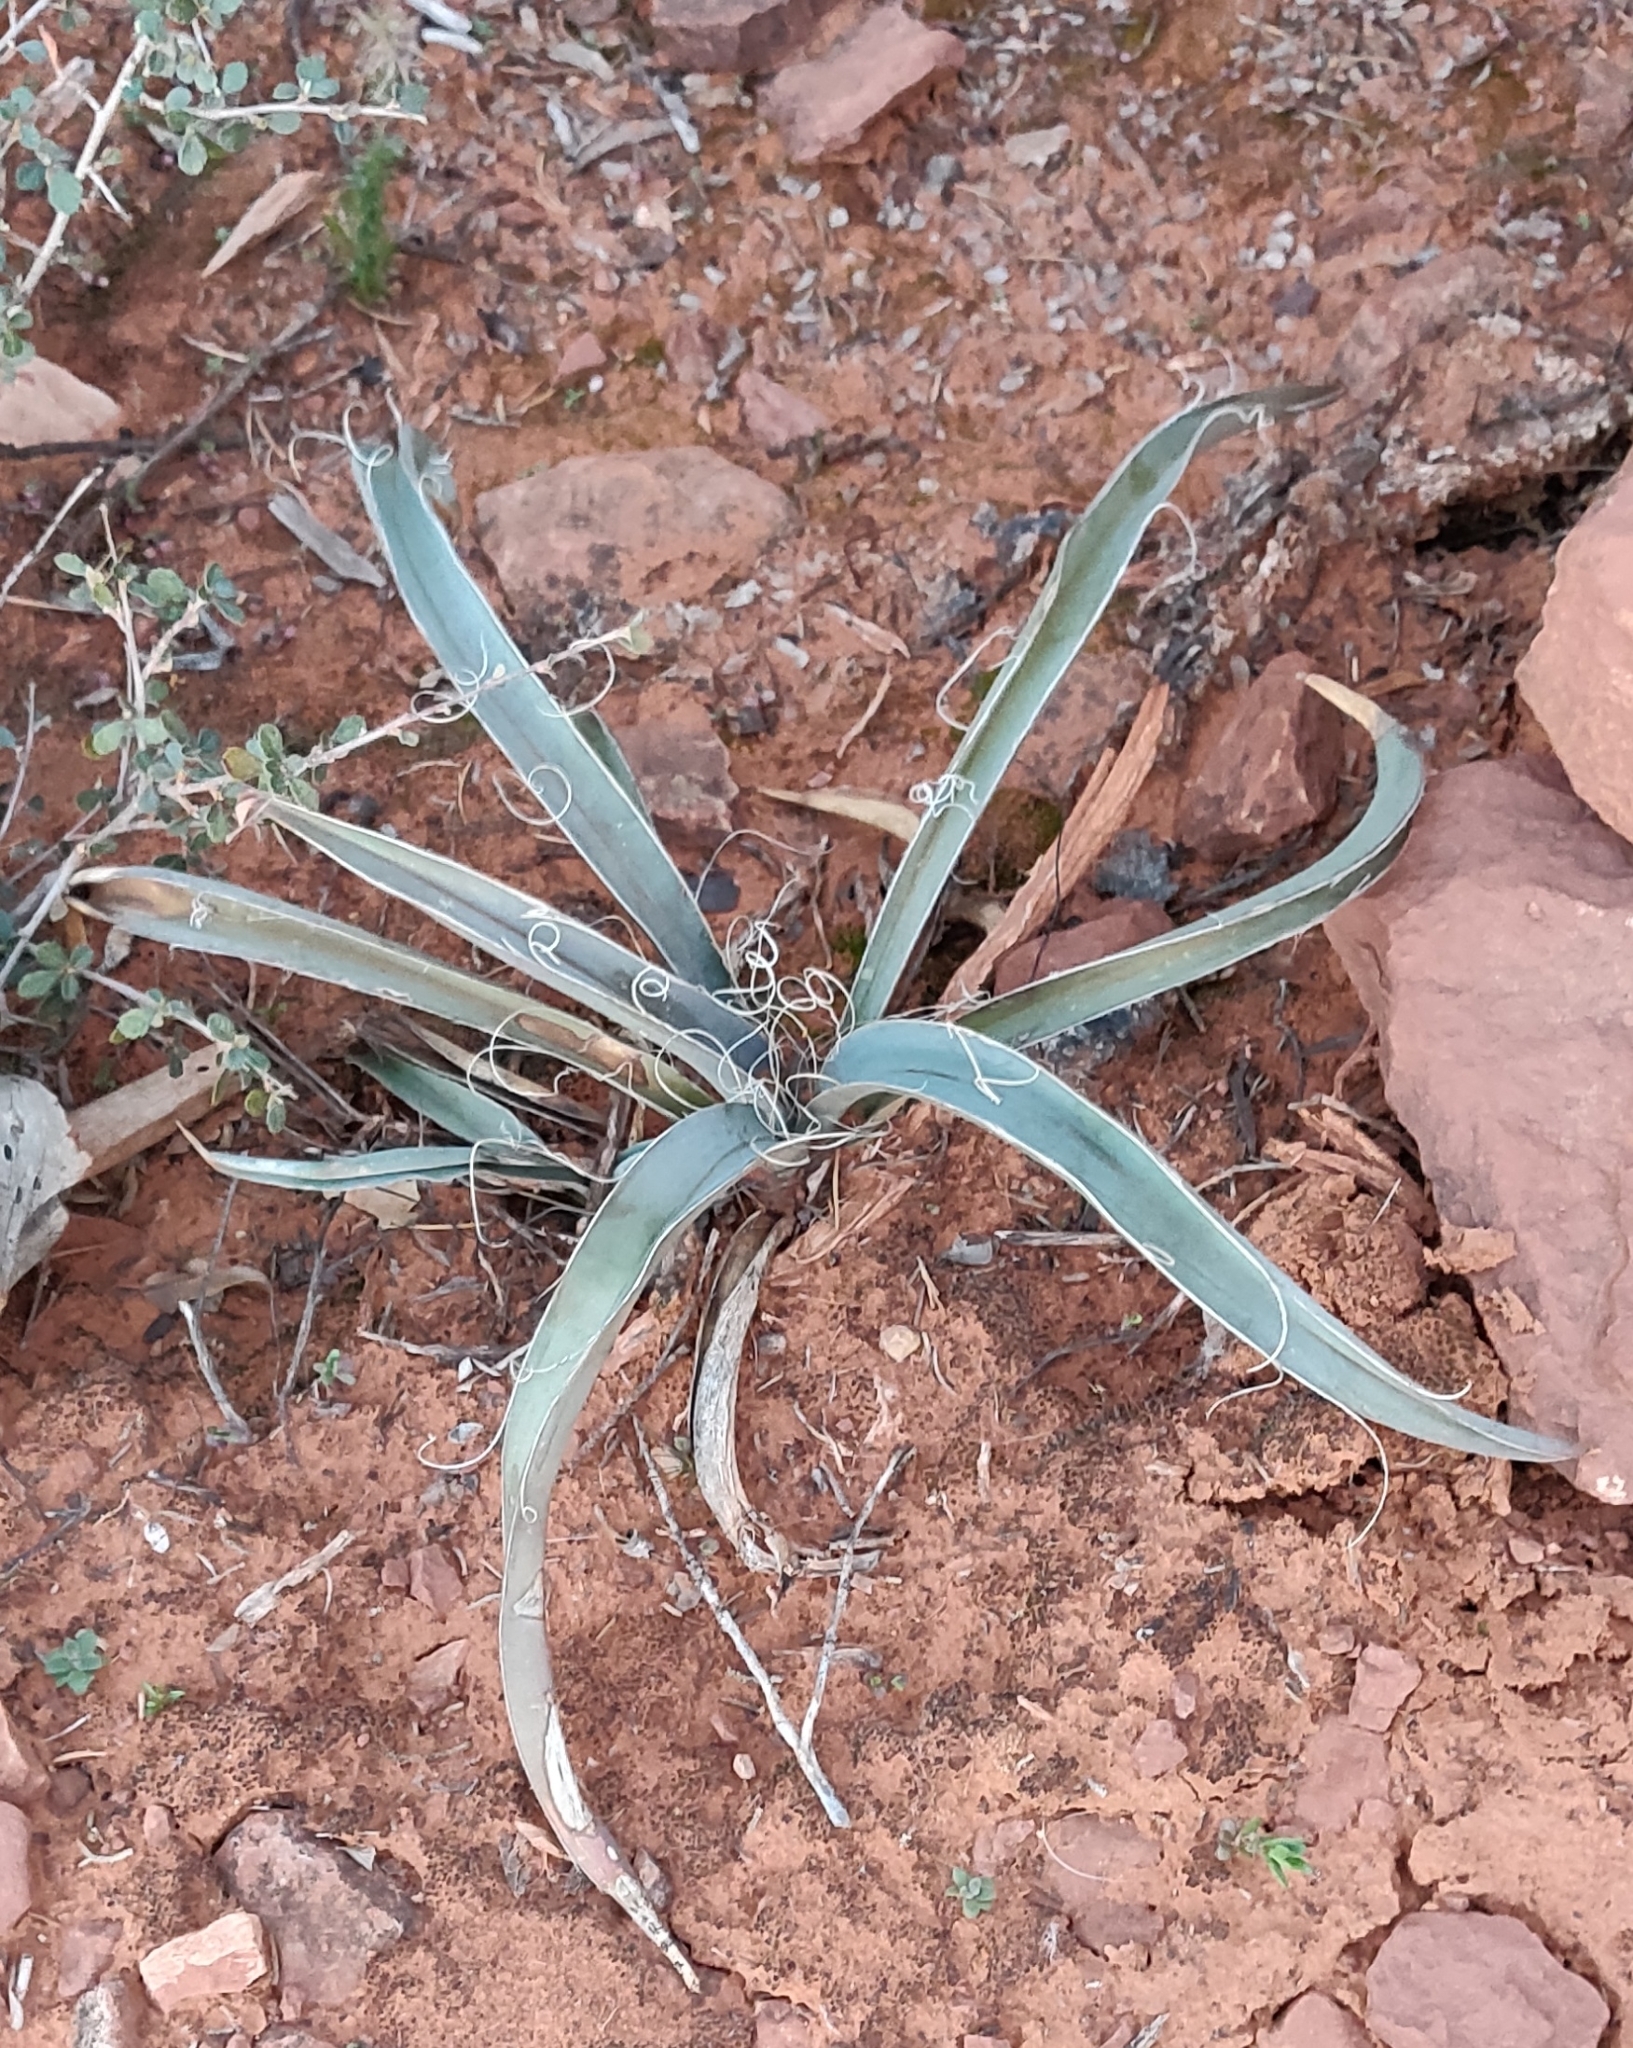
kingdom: Plantae
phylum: Tracheophyta
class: Liliopsida
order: Asparagales
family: Asparagaceae
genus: Yucca
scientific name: Yucca baccata
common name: Banana yucca
